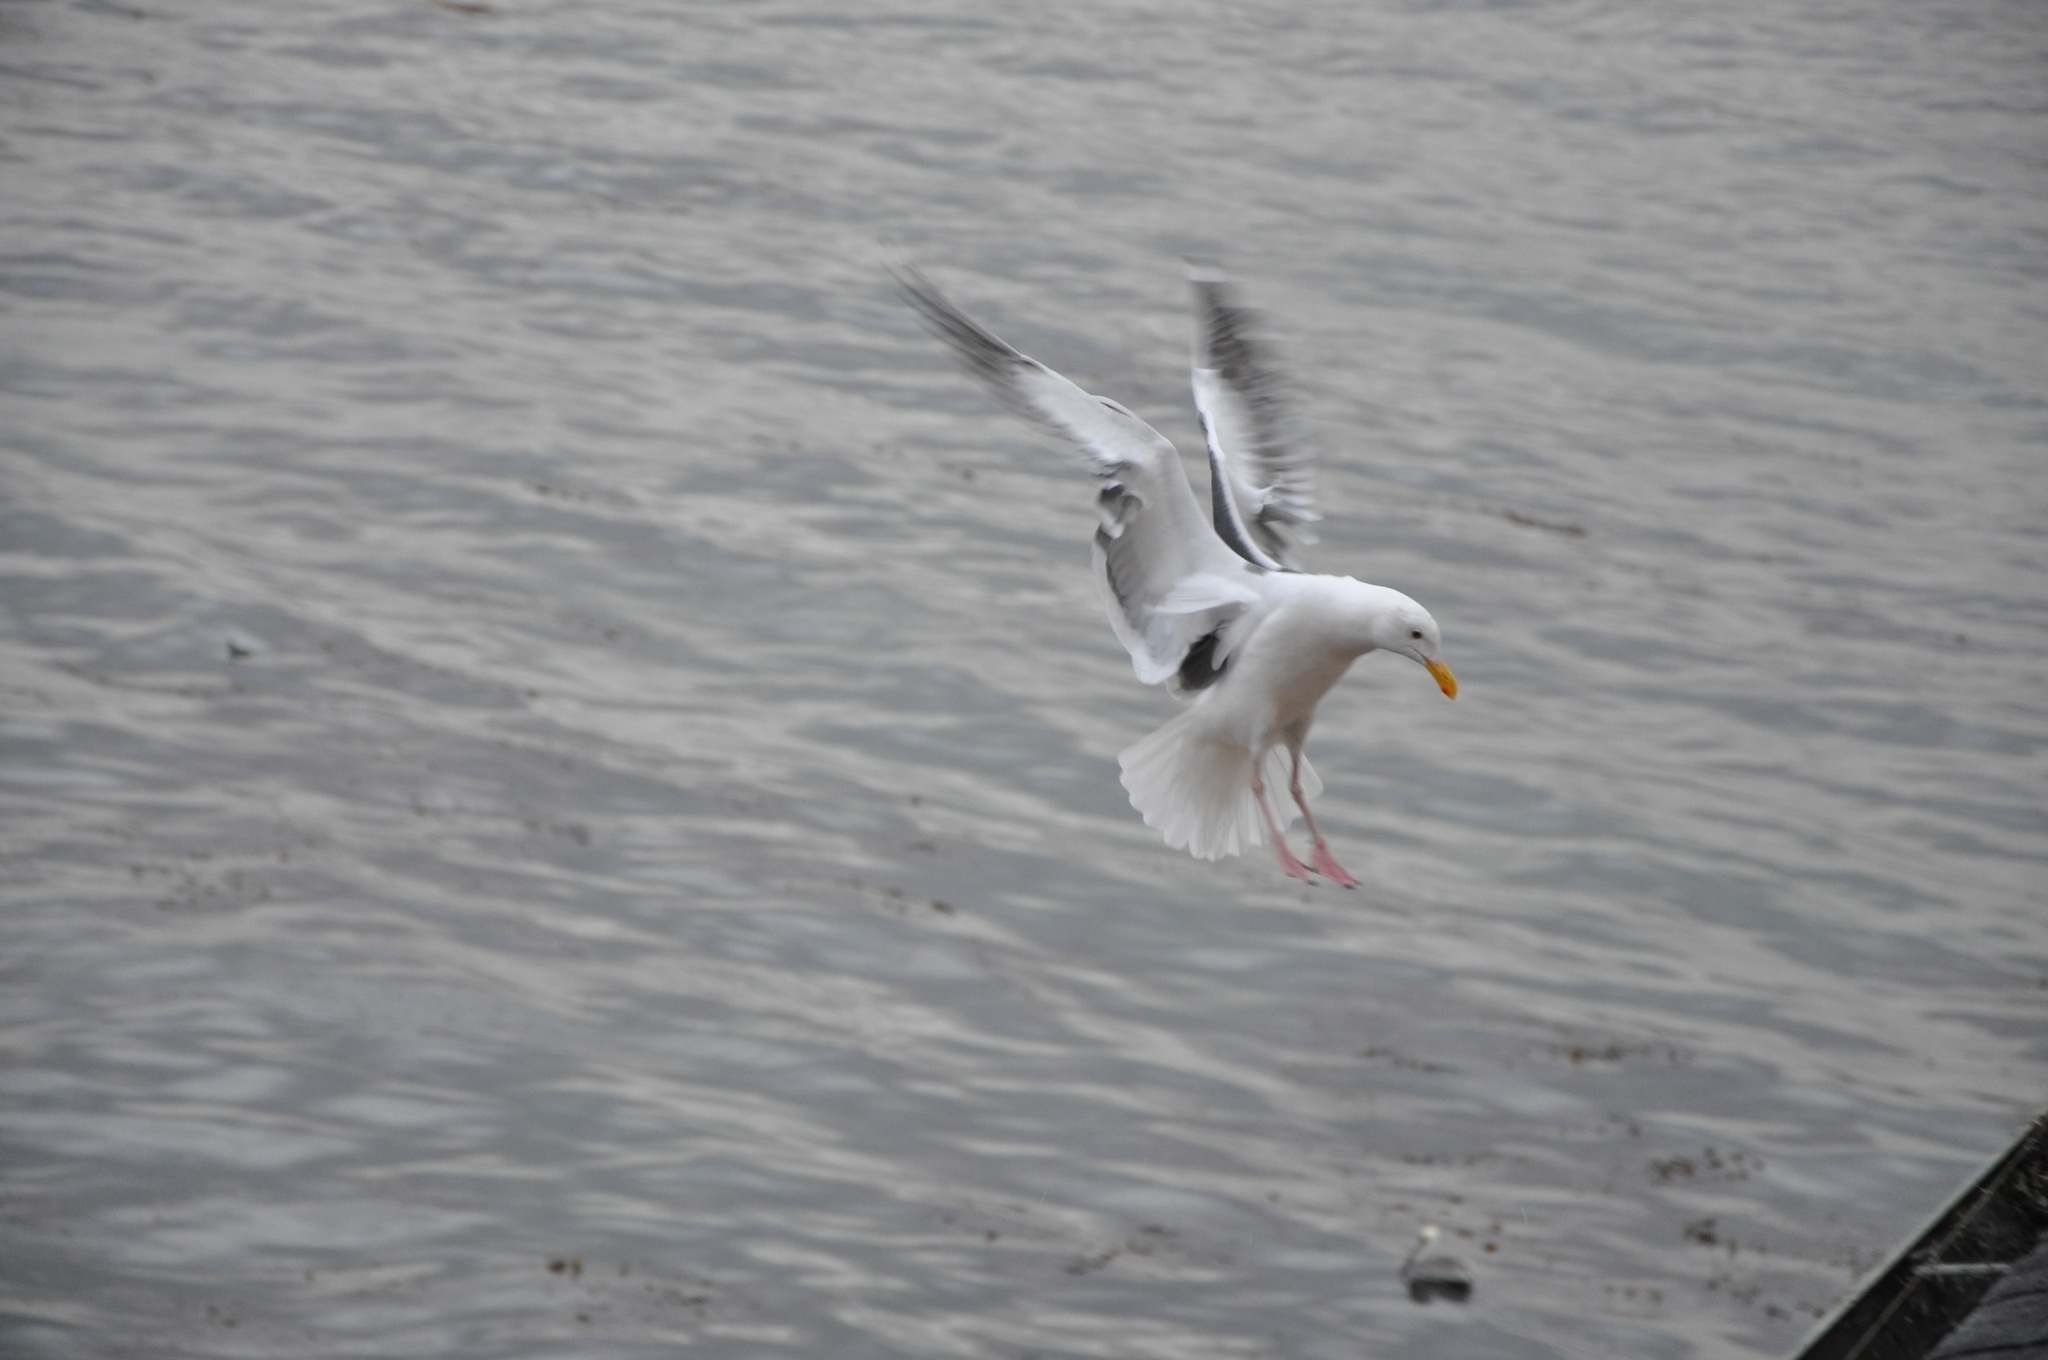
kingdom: Animalia
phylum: Chordata
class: Aves
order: Charadriiformes
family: Laridae
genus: Larus
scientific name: Larus occidentalis
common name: Western gull
